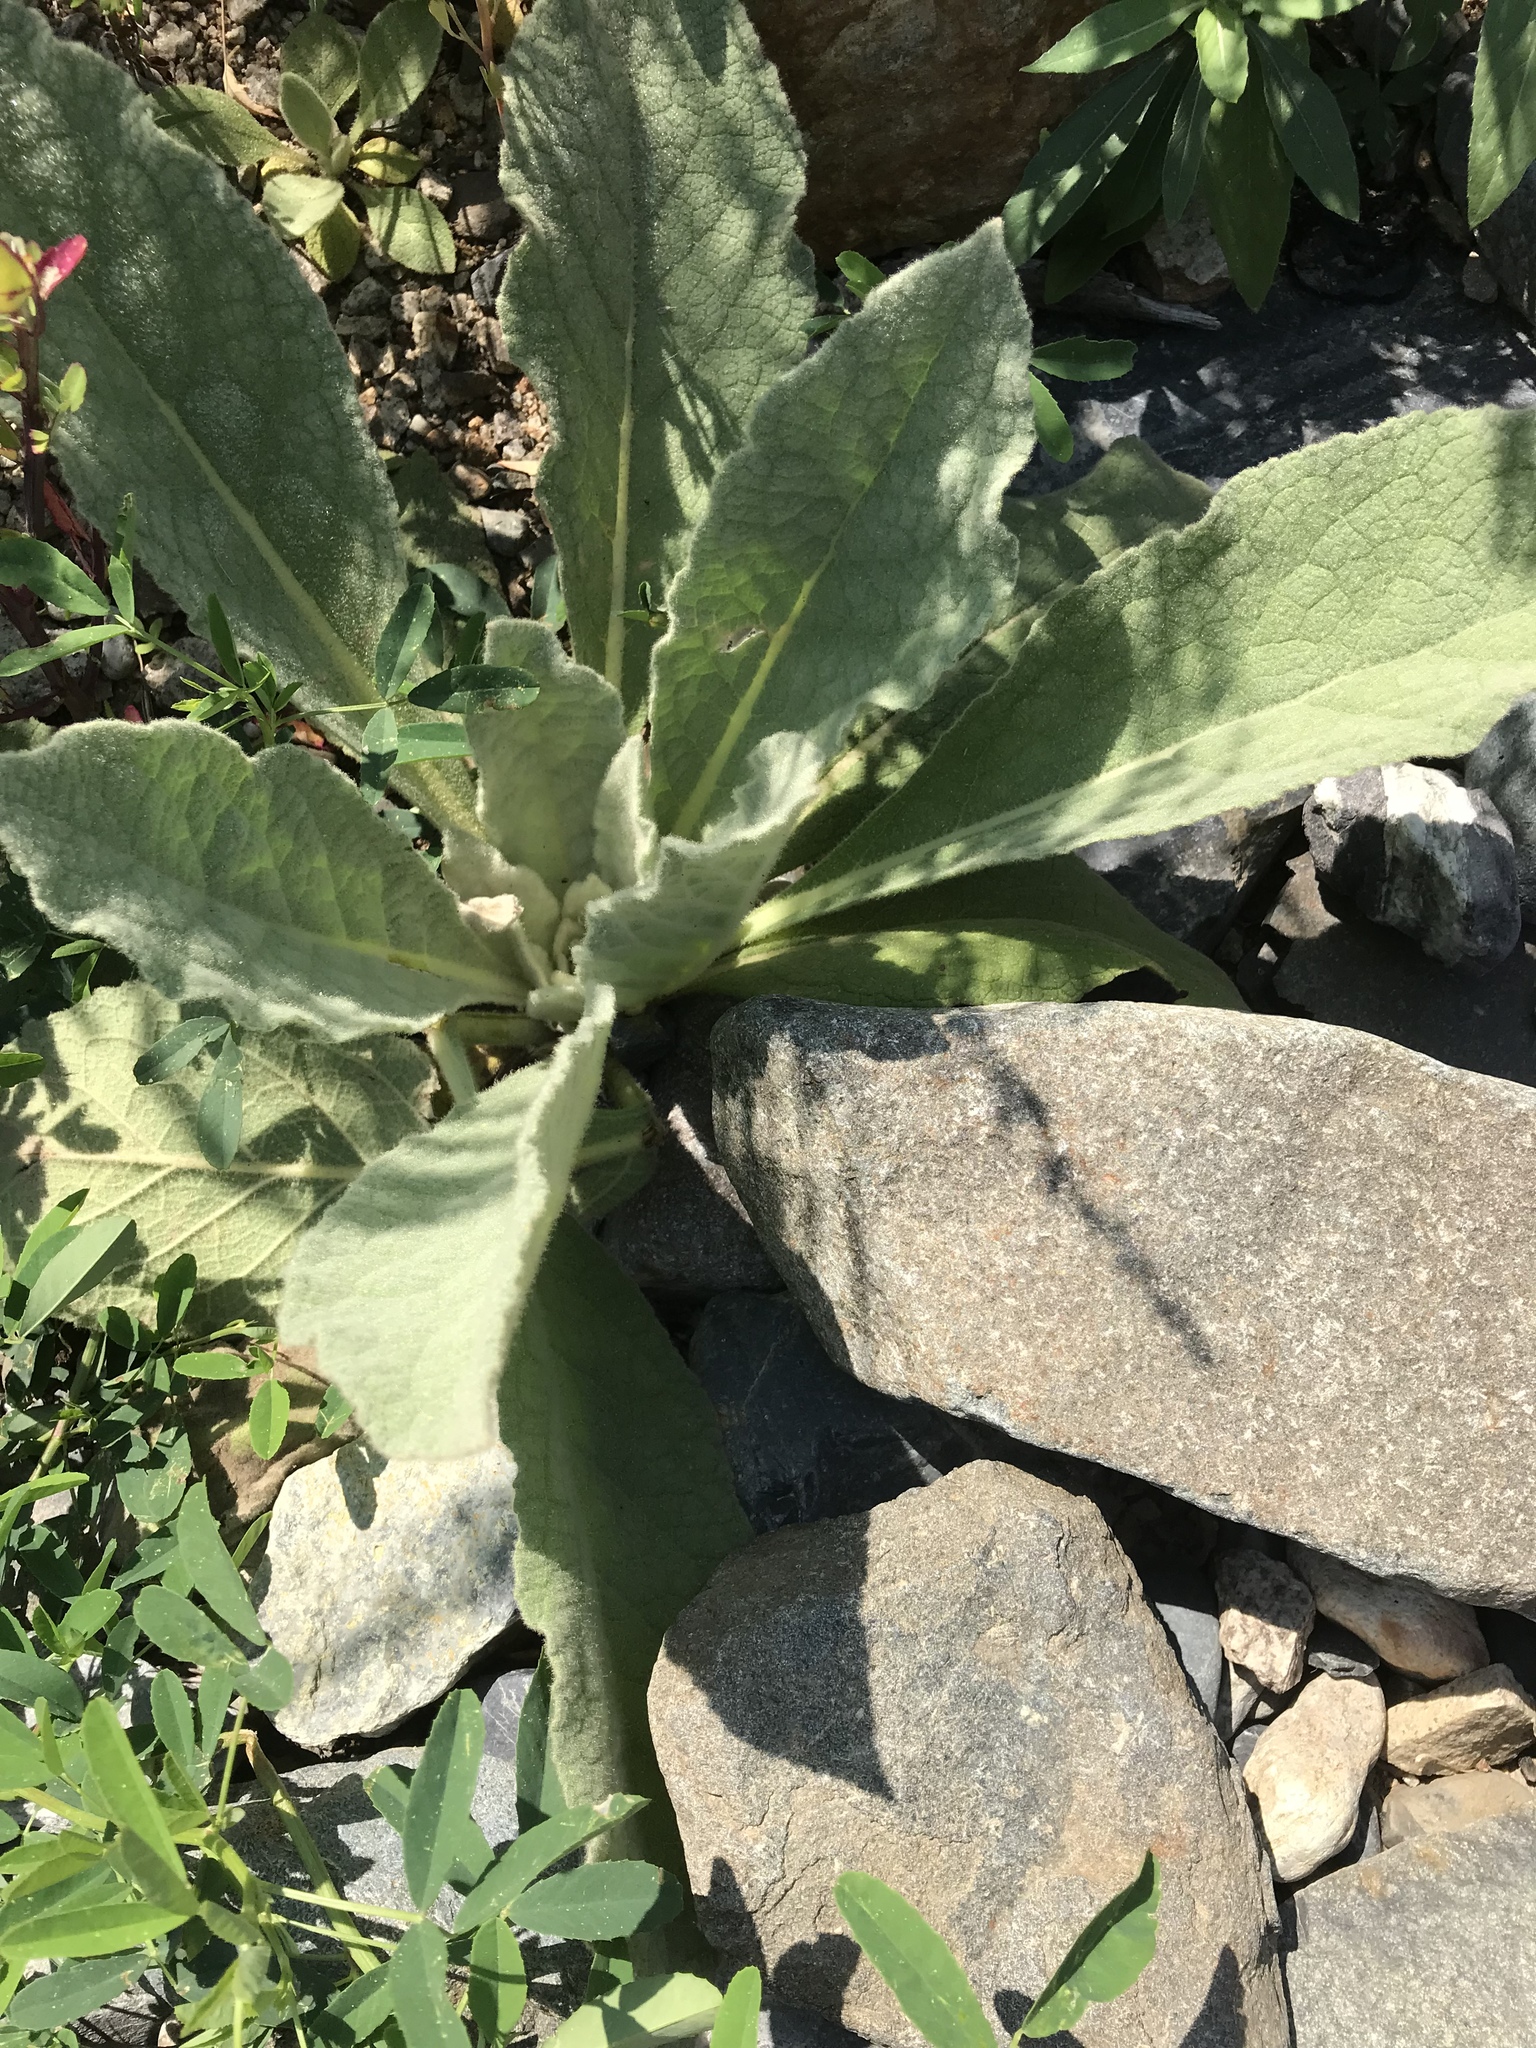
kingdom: Plantae
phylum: Tracheophyta
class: Magnoliopsida
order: Lamiales
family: Scrophulariaceae
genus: Verbascum
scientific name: Verbascum thapsus
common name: Common mullein
